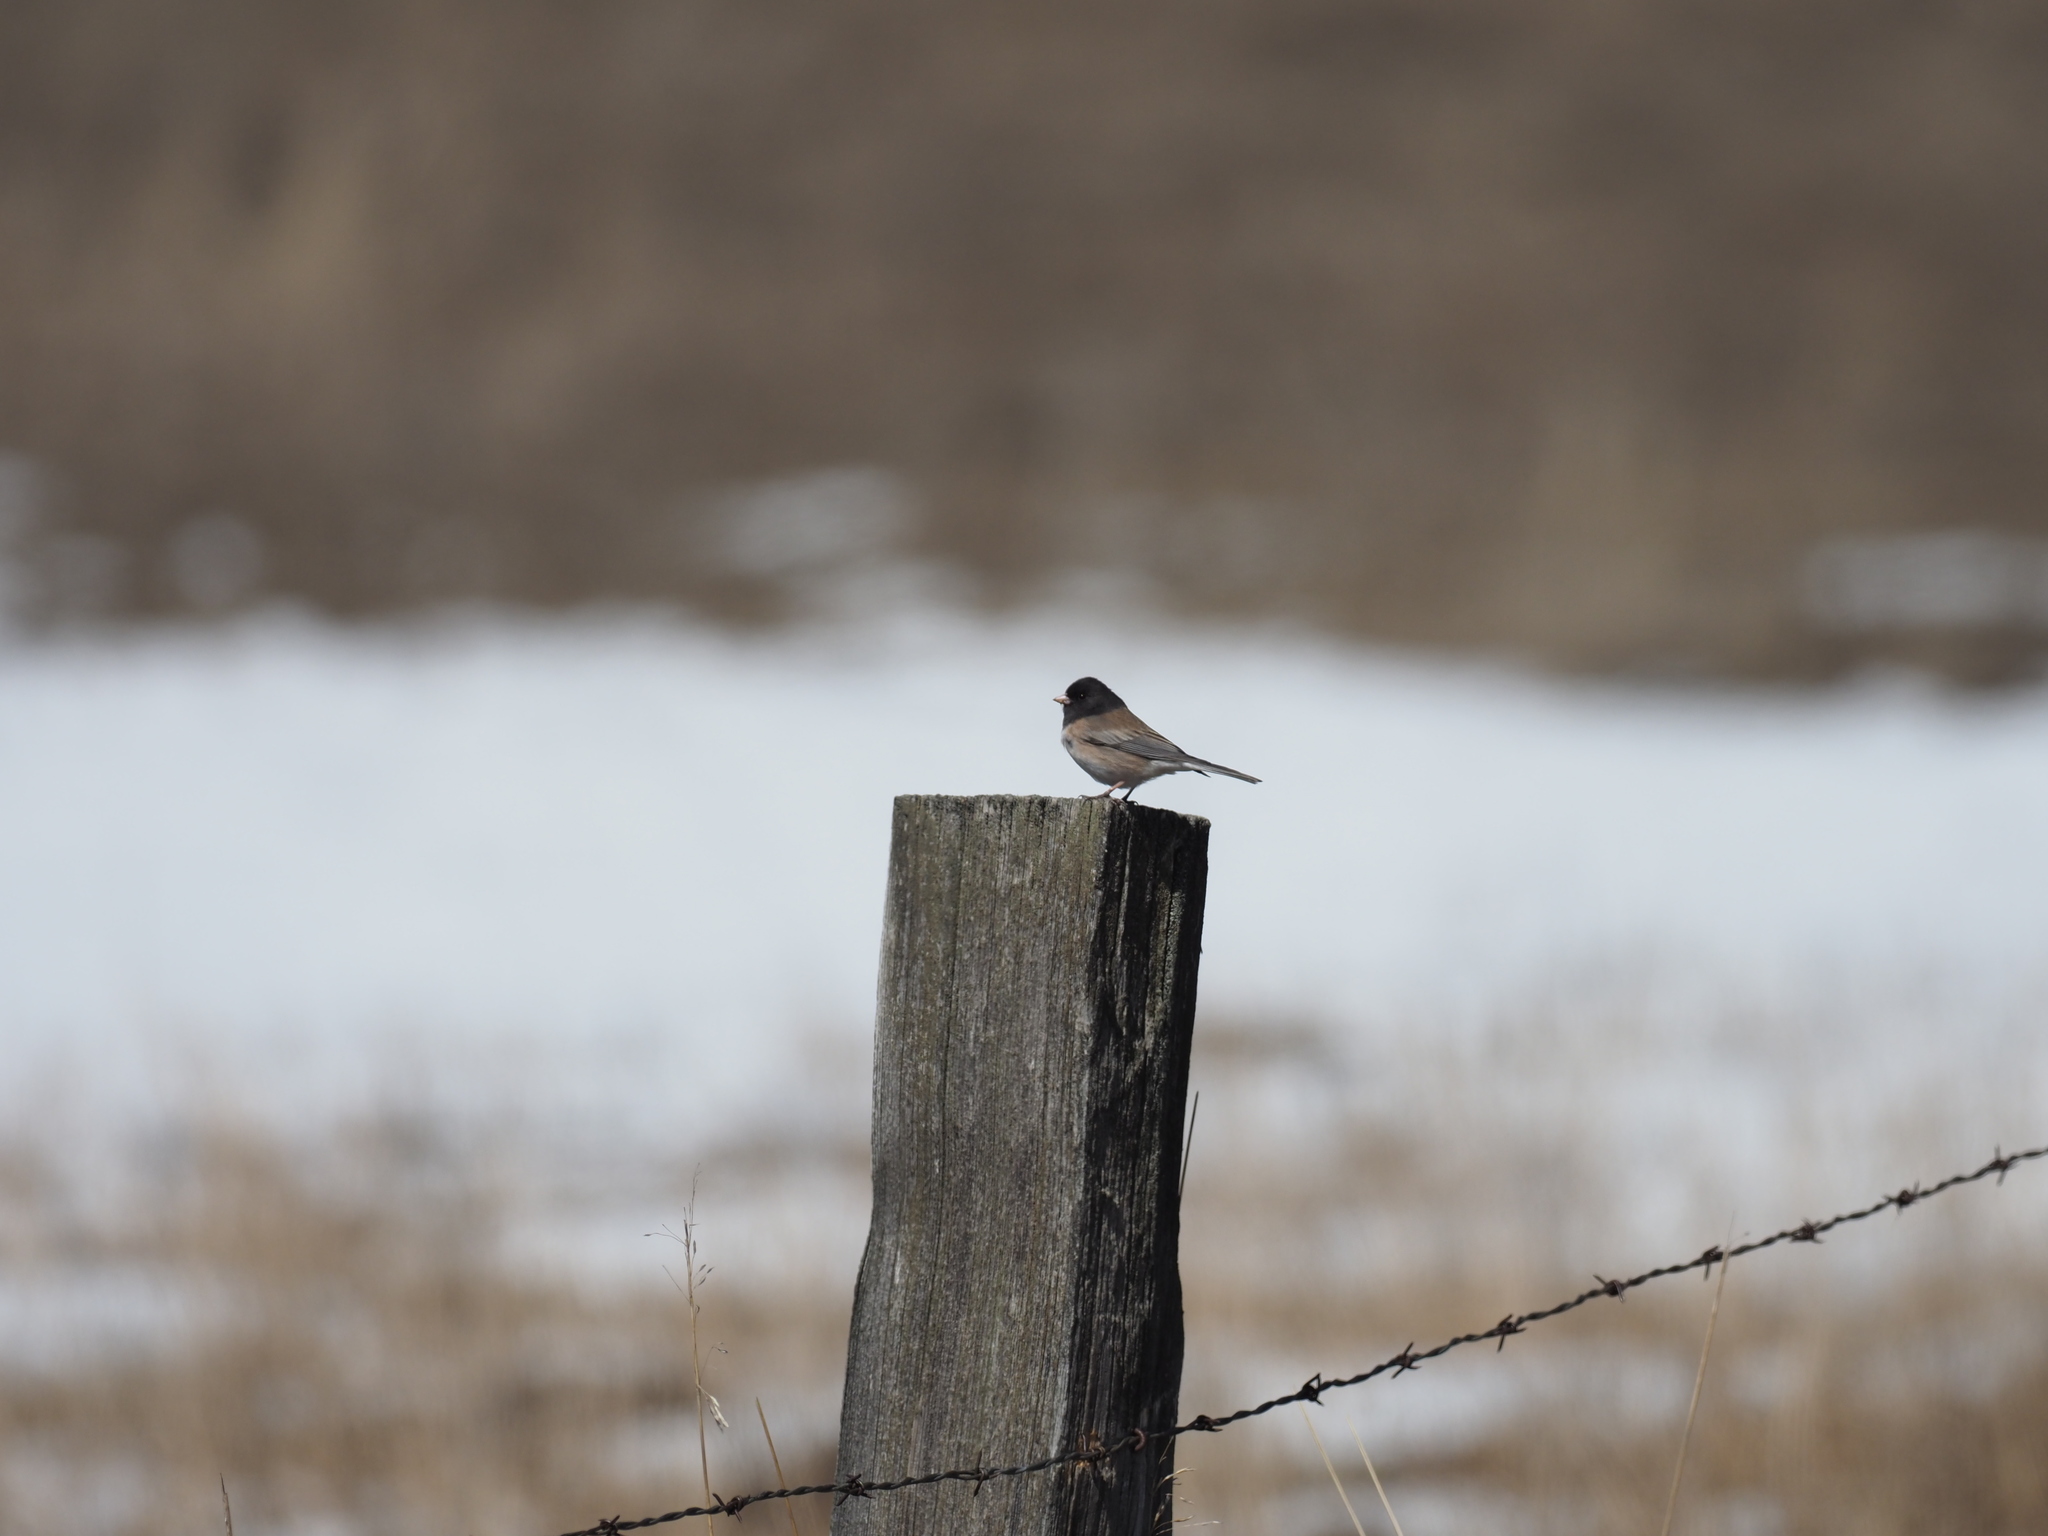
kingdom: Animalia
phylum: Chordata
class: Aves
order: Passeriformes
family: Passerellidae
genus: Junco
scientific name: Junco hyemalis
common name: Dark-eyed junco
